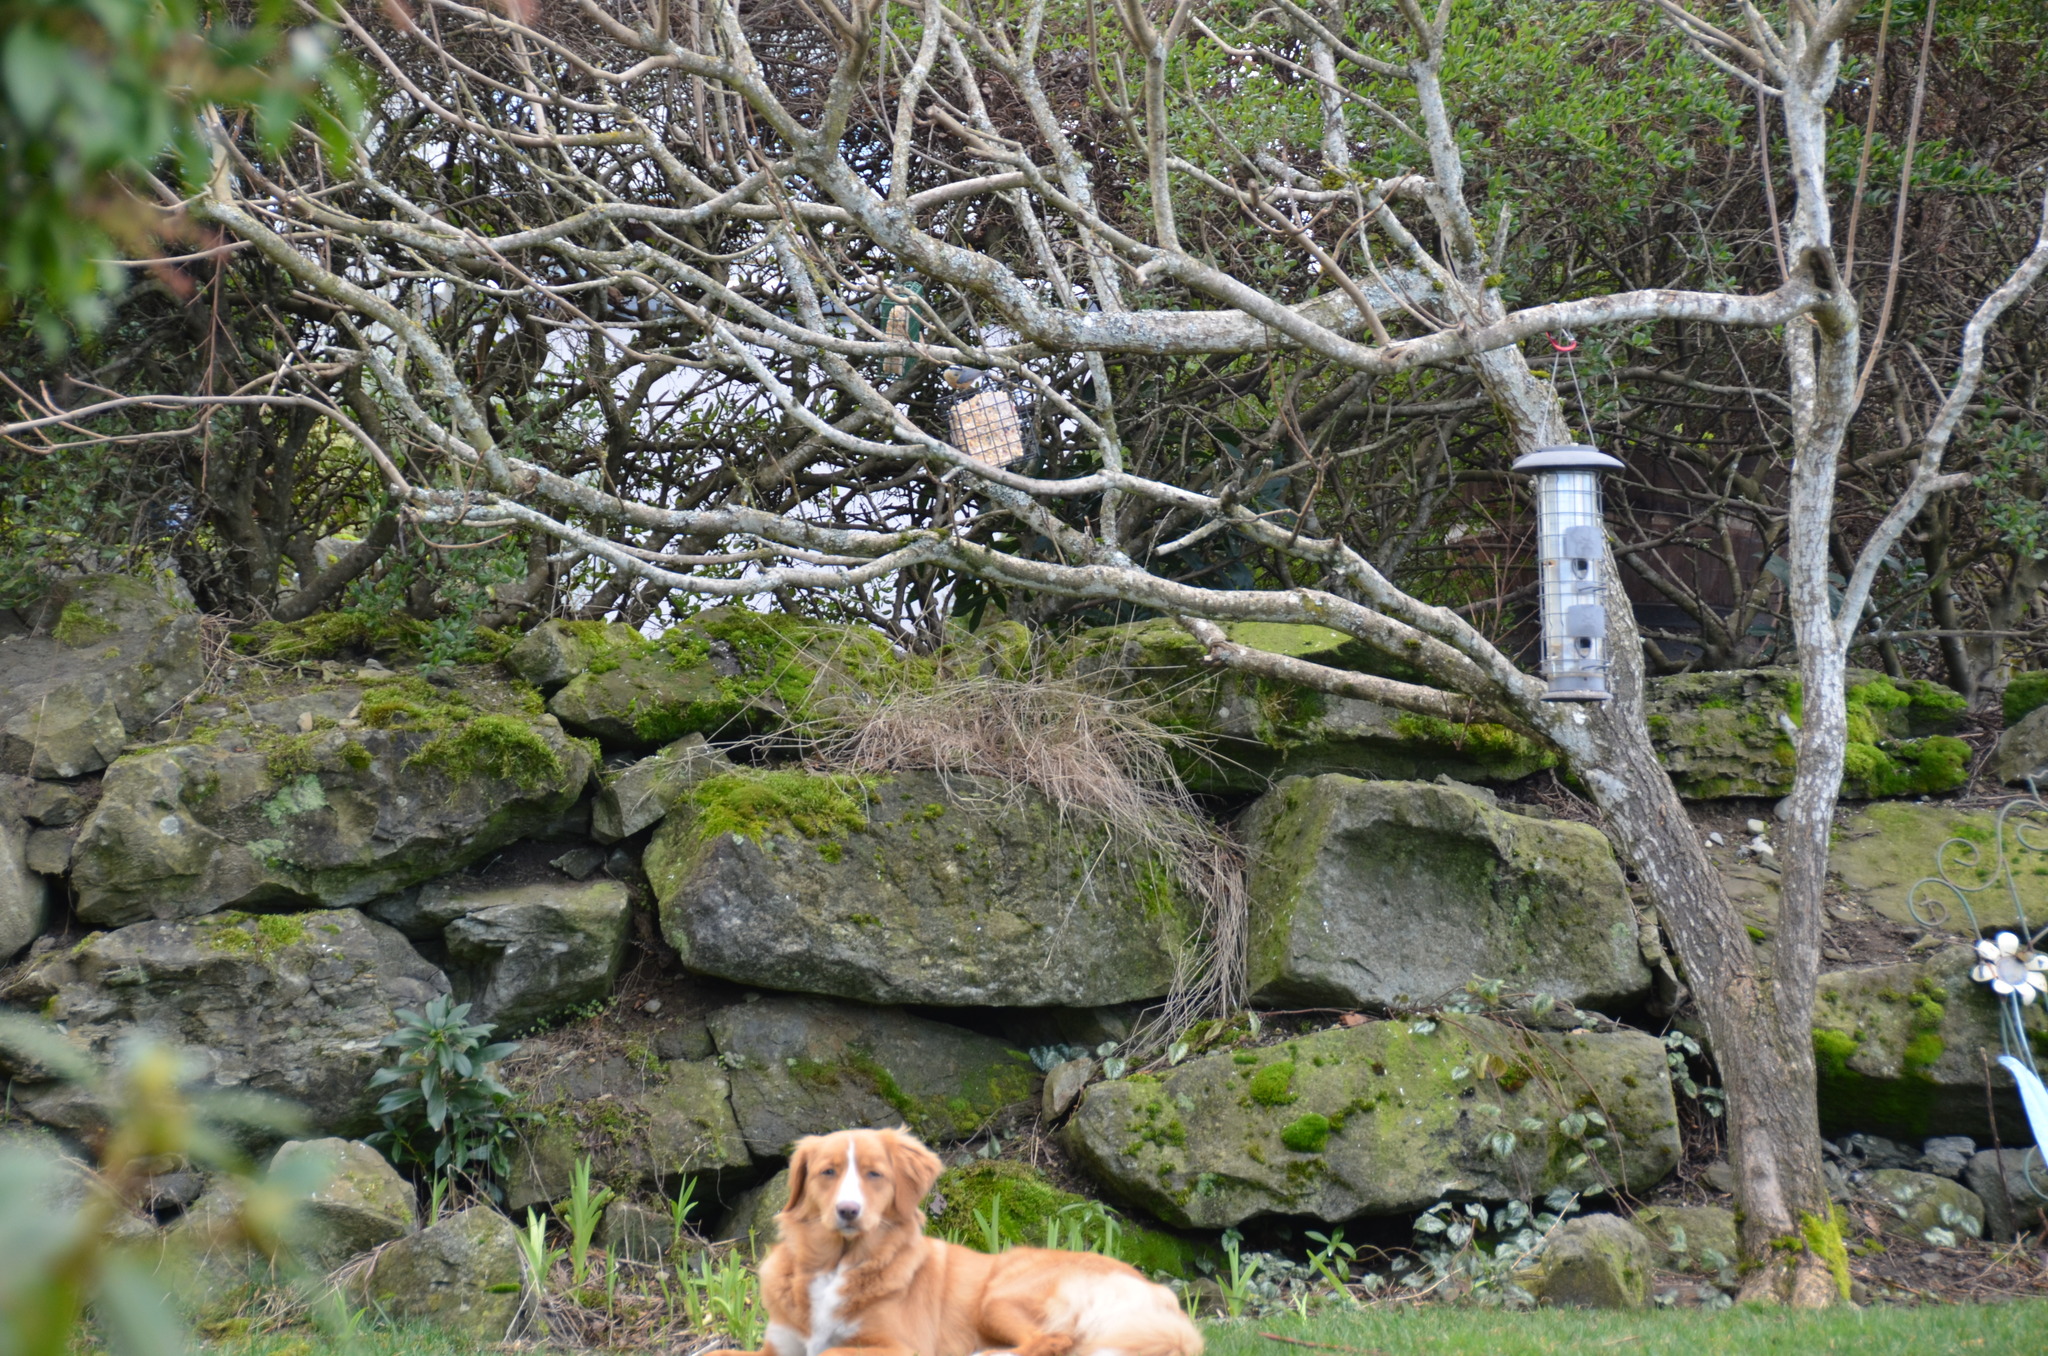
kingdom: Animalia
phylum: Chordata
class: Aves
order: Passeriformes
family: Sittidae
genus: Sitta
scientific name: Sitta canadensis
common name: Red-breasted nuthatch
